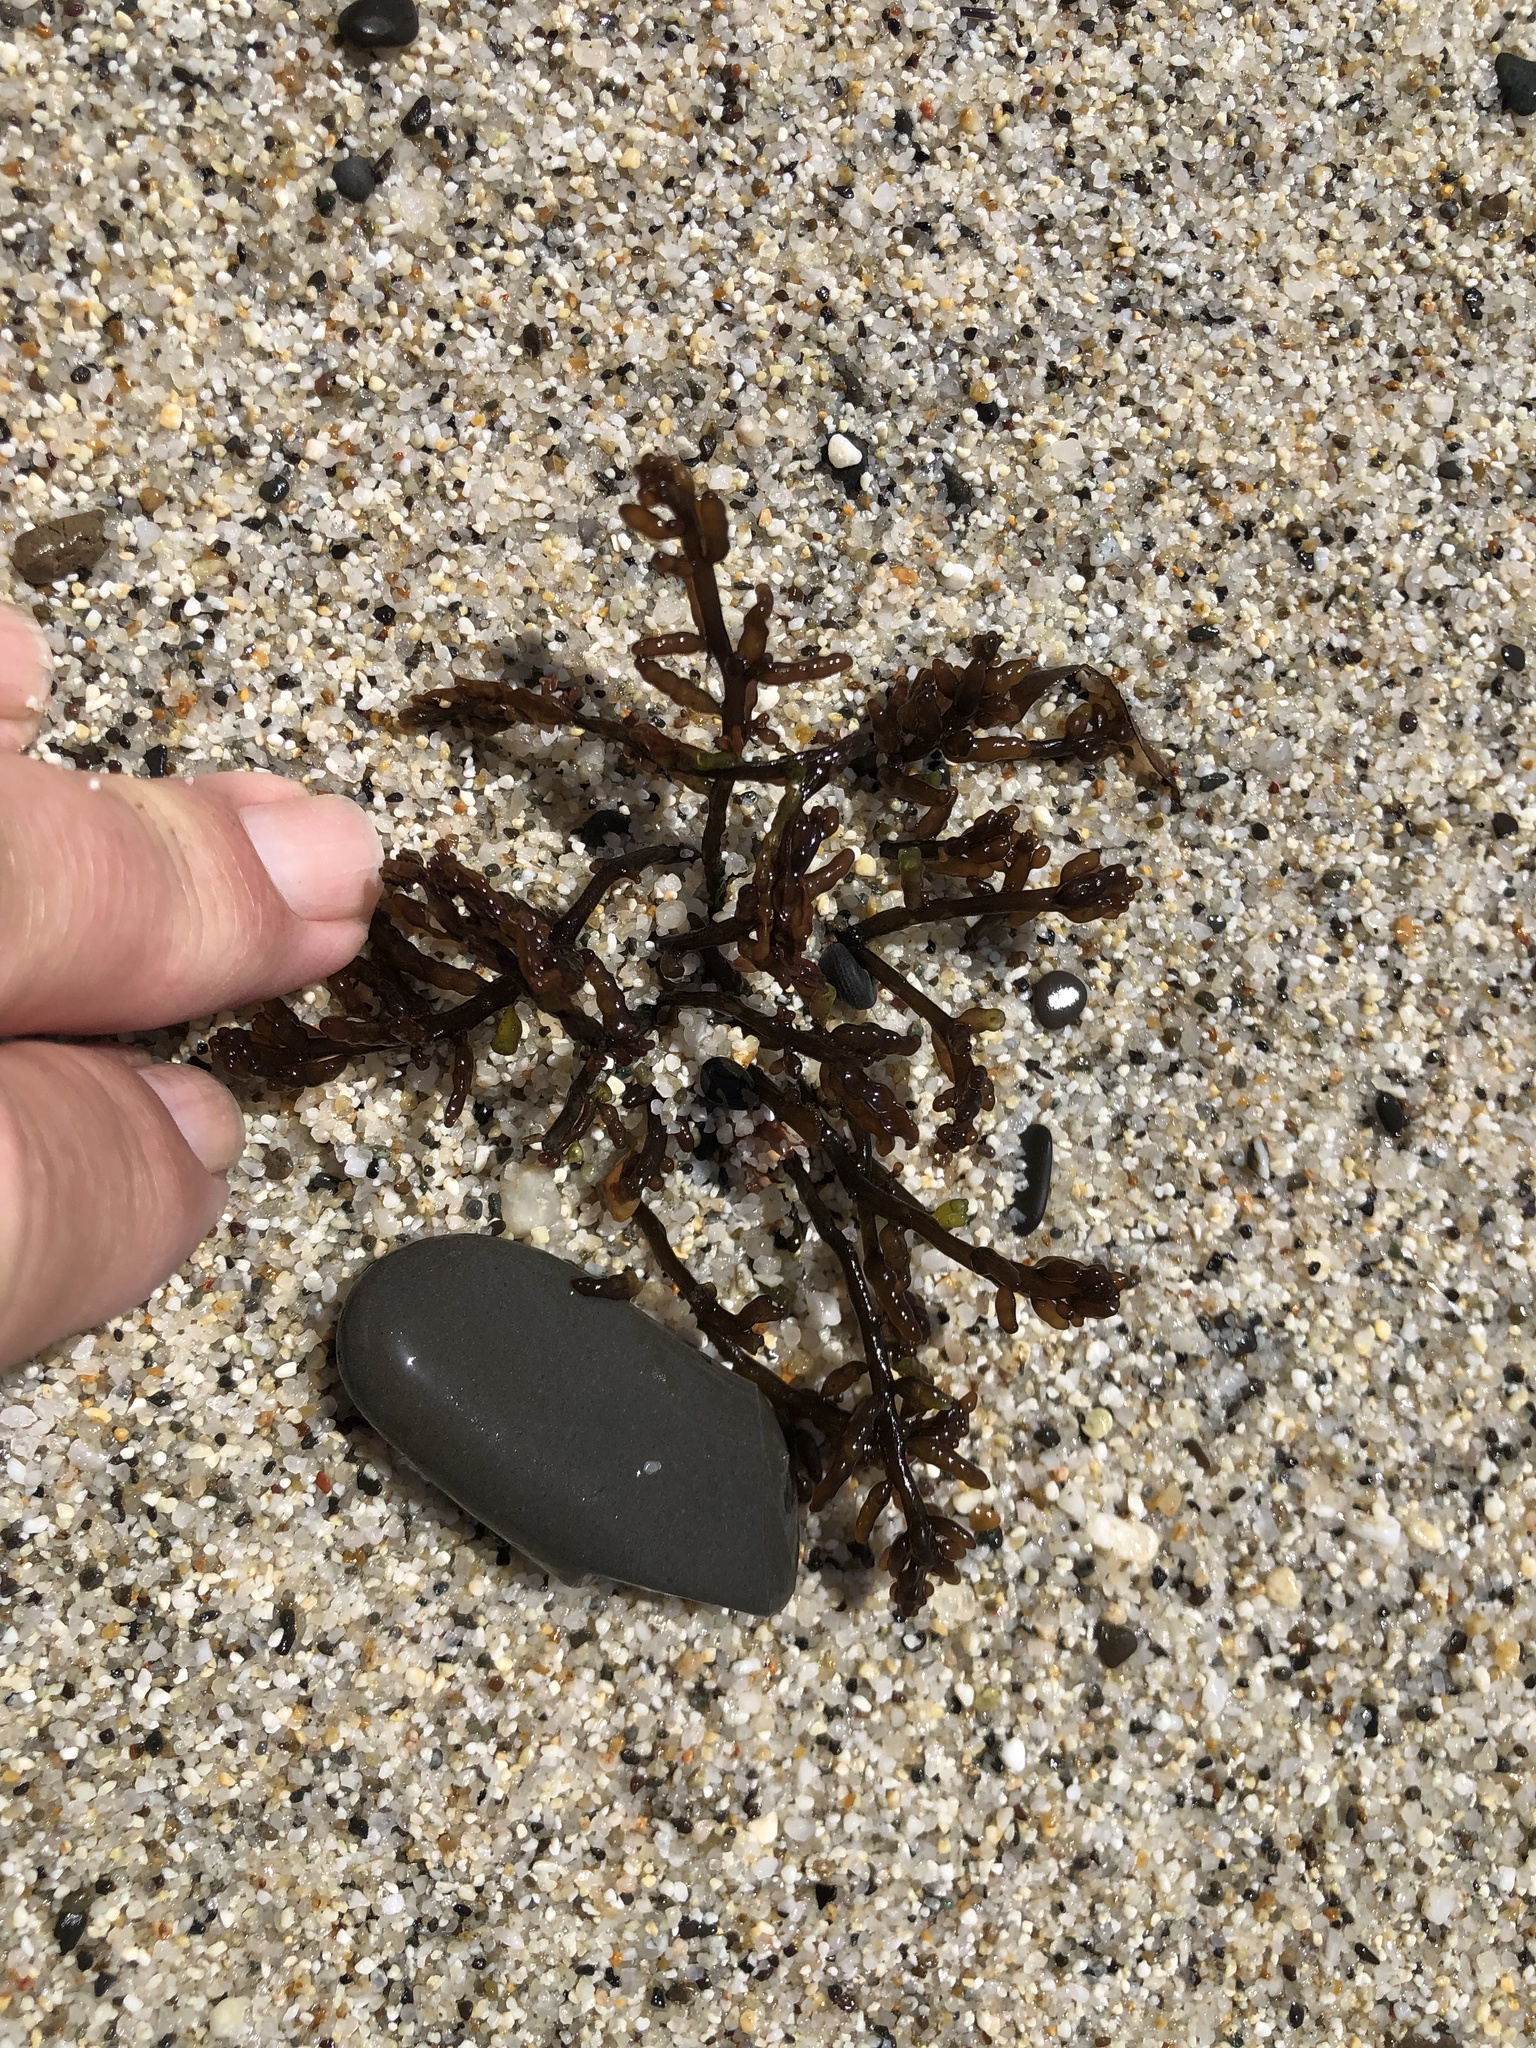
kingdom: Plantae
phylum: Rhodophyta
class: Florideophyceae
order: Rhodymeniales
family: Champiaceae
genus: Neogastroclonium
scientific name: Neogastroclonium subarticulatum
